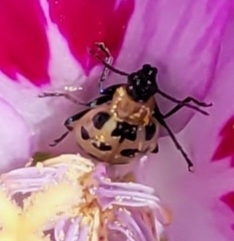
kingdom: Animalia
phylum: Arthropoda
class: Insecta
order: Coleoptera
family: Chrysomelidae
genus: Diabrotica
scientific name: Diabrotica undecimpunctata
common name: Spotted cucumber beetle
